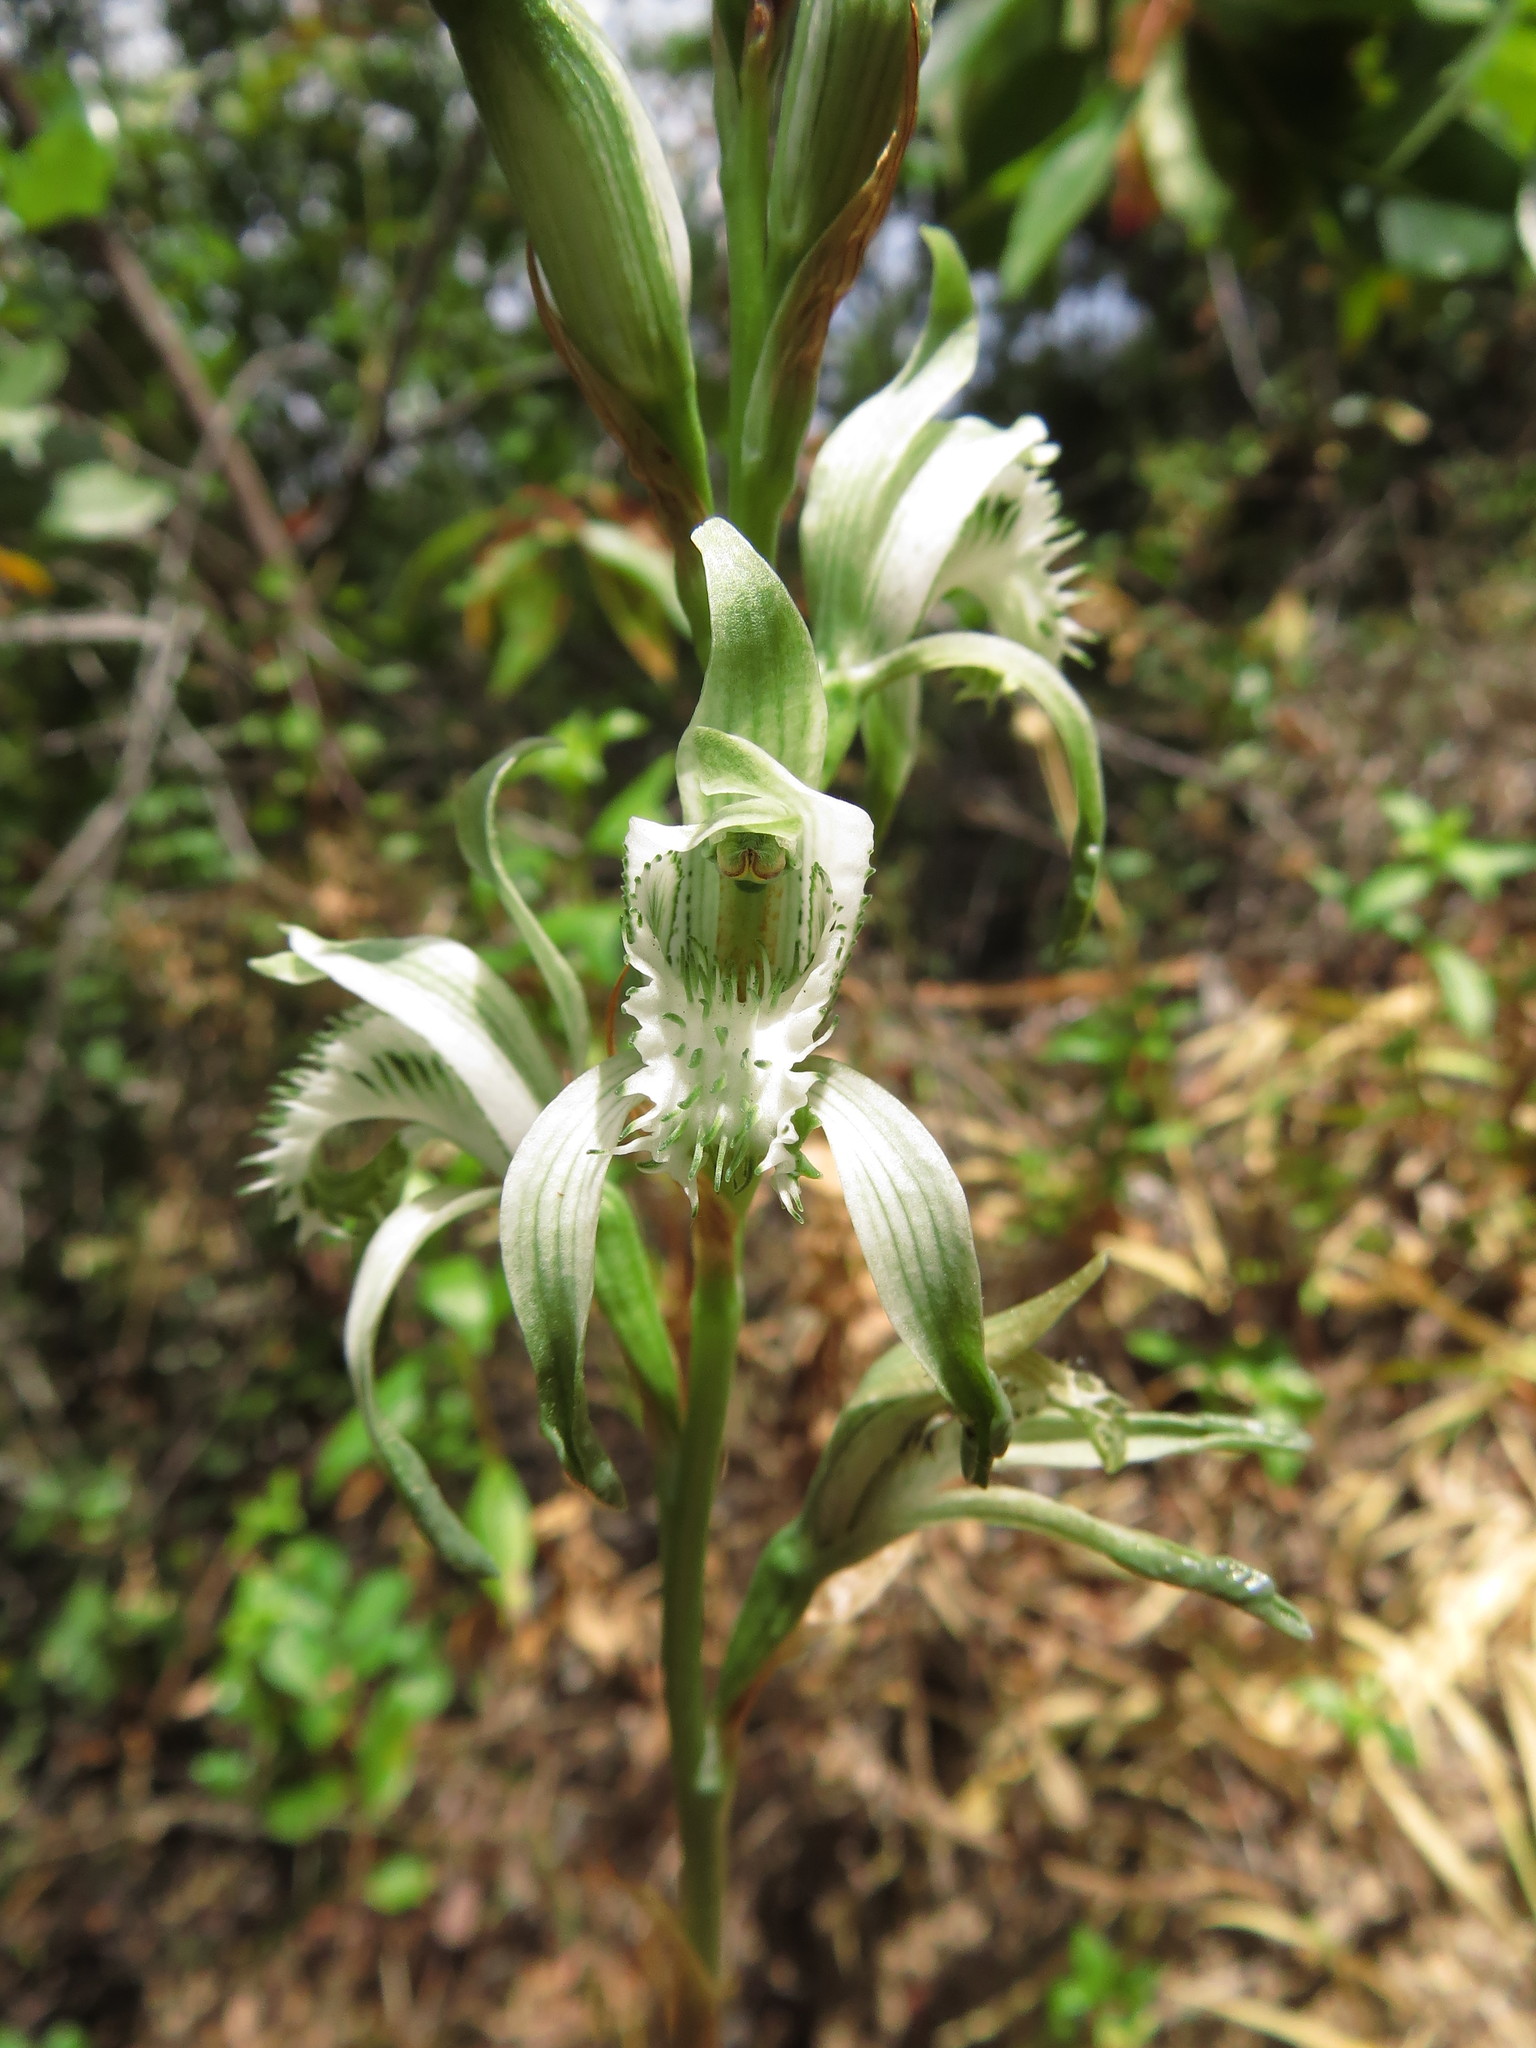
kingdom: Plantae
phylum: Tracheophyta
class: Liliopsida
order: Asparagales
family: Orchidaceae
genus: Chloraea
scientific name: Chloraea piquichen
